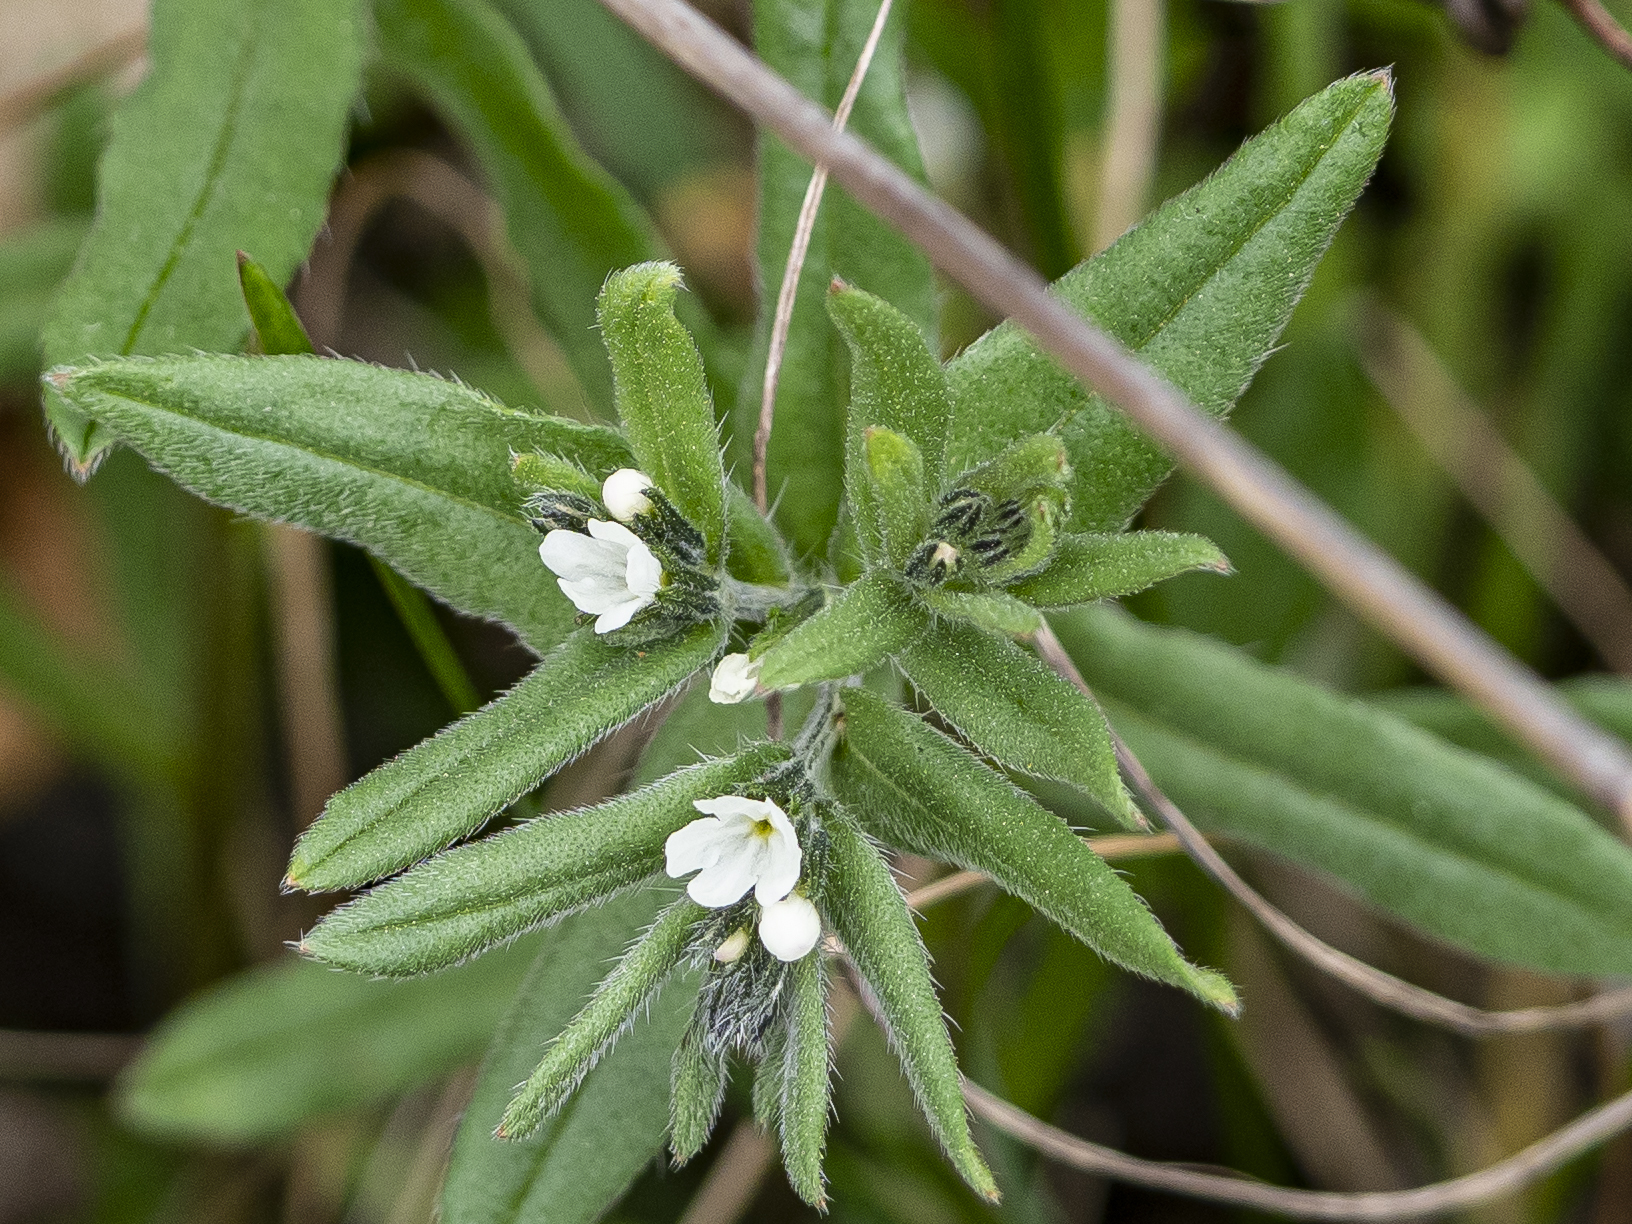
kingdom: Plantae
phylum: Tracheophyta
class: Magnoliopsida
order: Boraginales
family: Boraginaceae
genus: Buglossoides
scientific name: Buglossoides arvensis
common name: Corn gromwell
